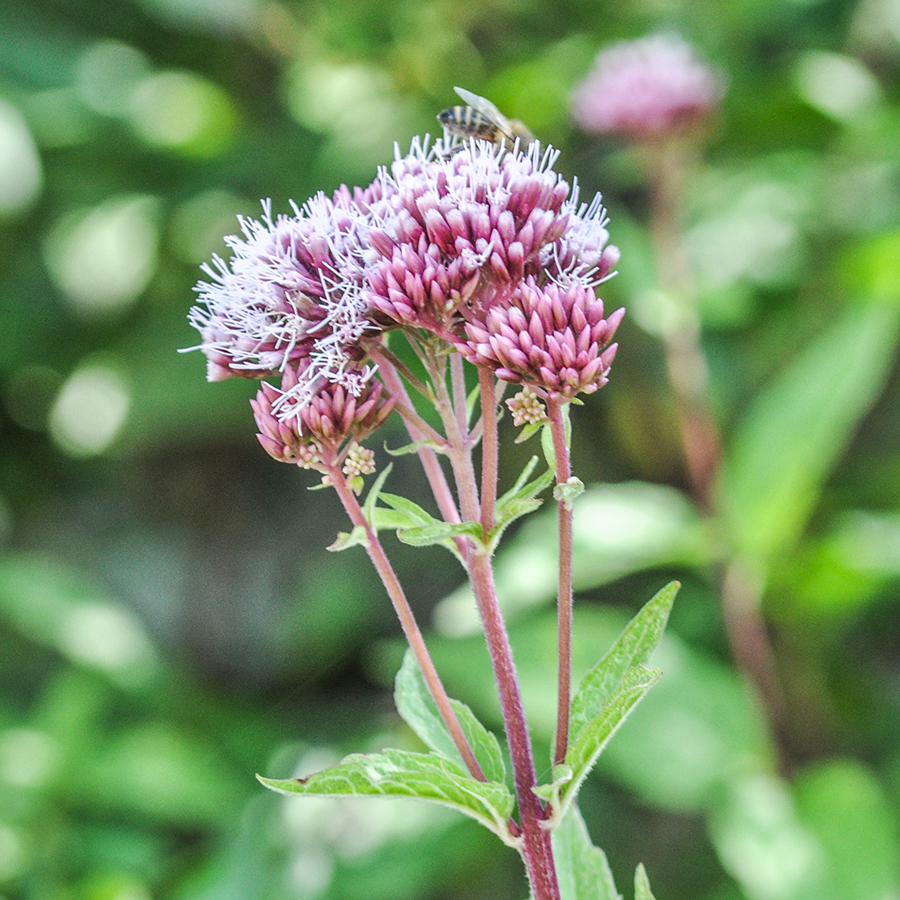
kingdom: Plantae
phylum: Tracheophyta
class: Magnoliopsida
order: Asterales
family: Asteraceae
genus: Eupatorium
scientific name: Eupatorium cannabinum
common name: Hemp-agrimony
